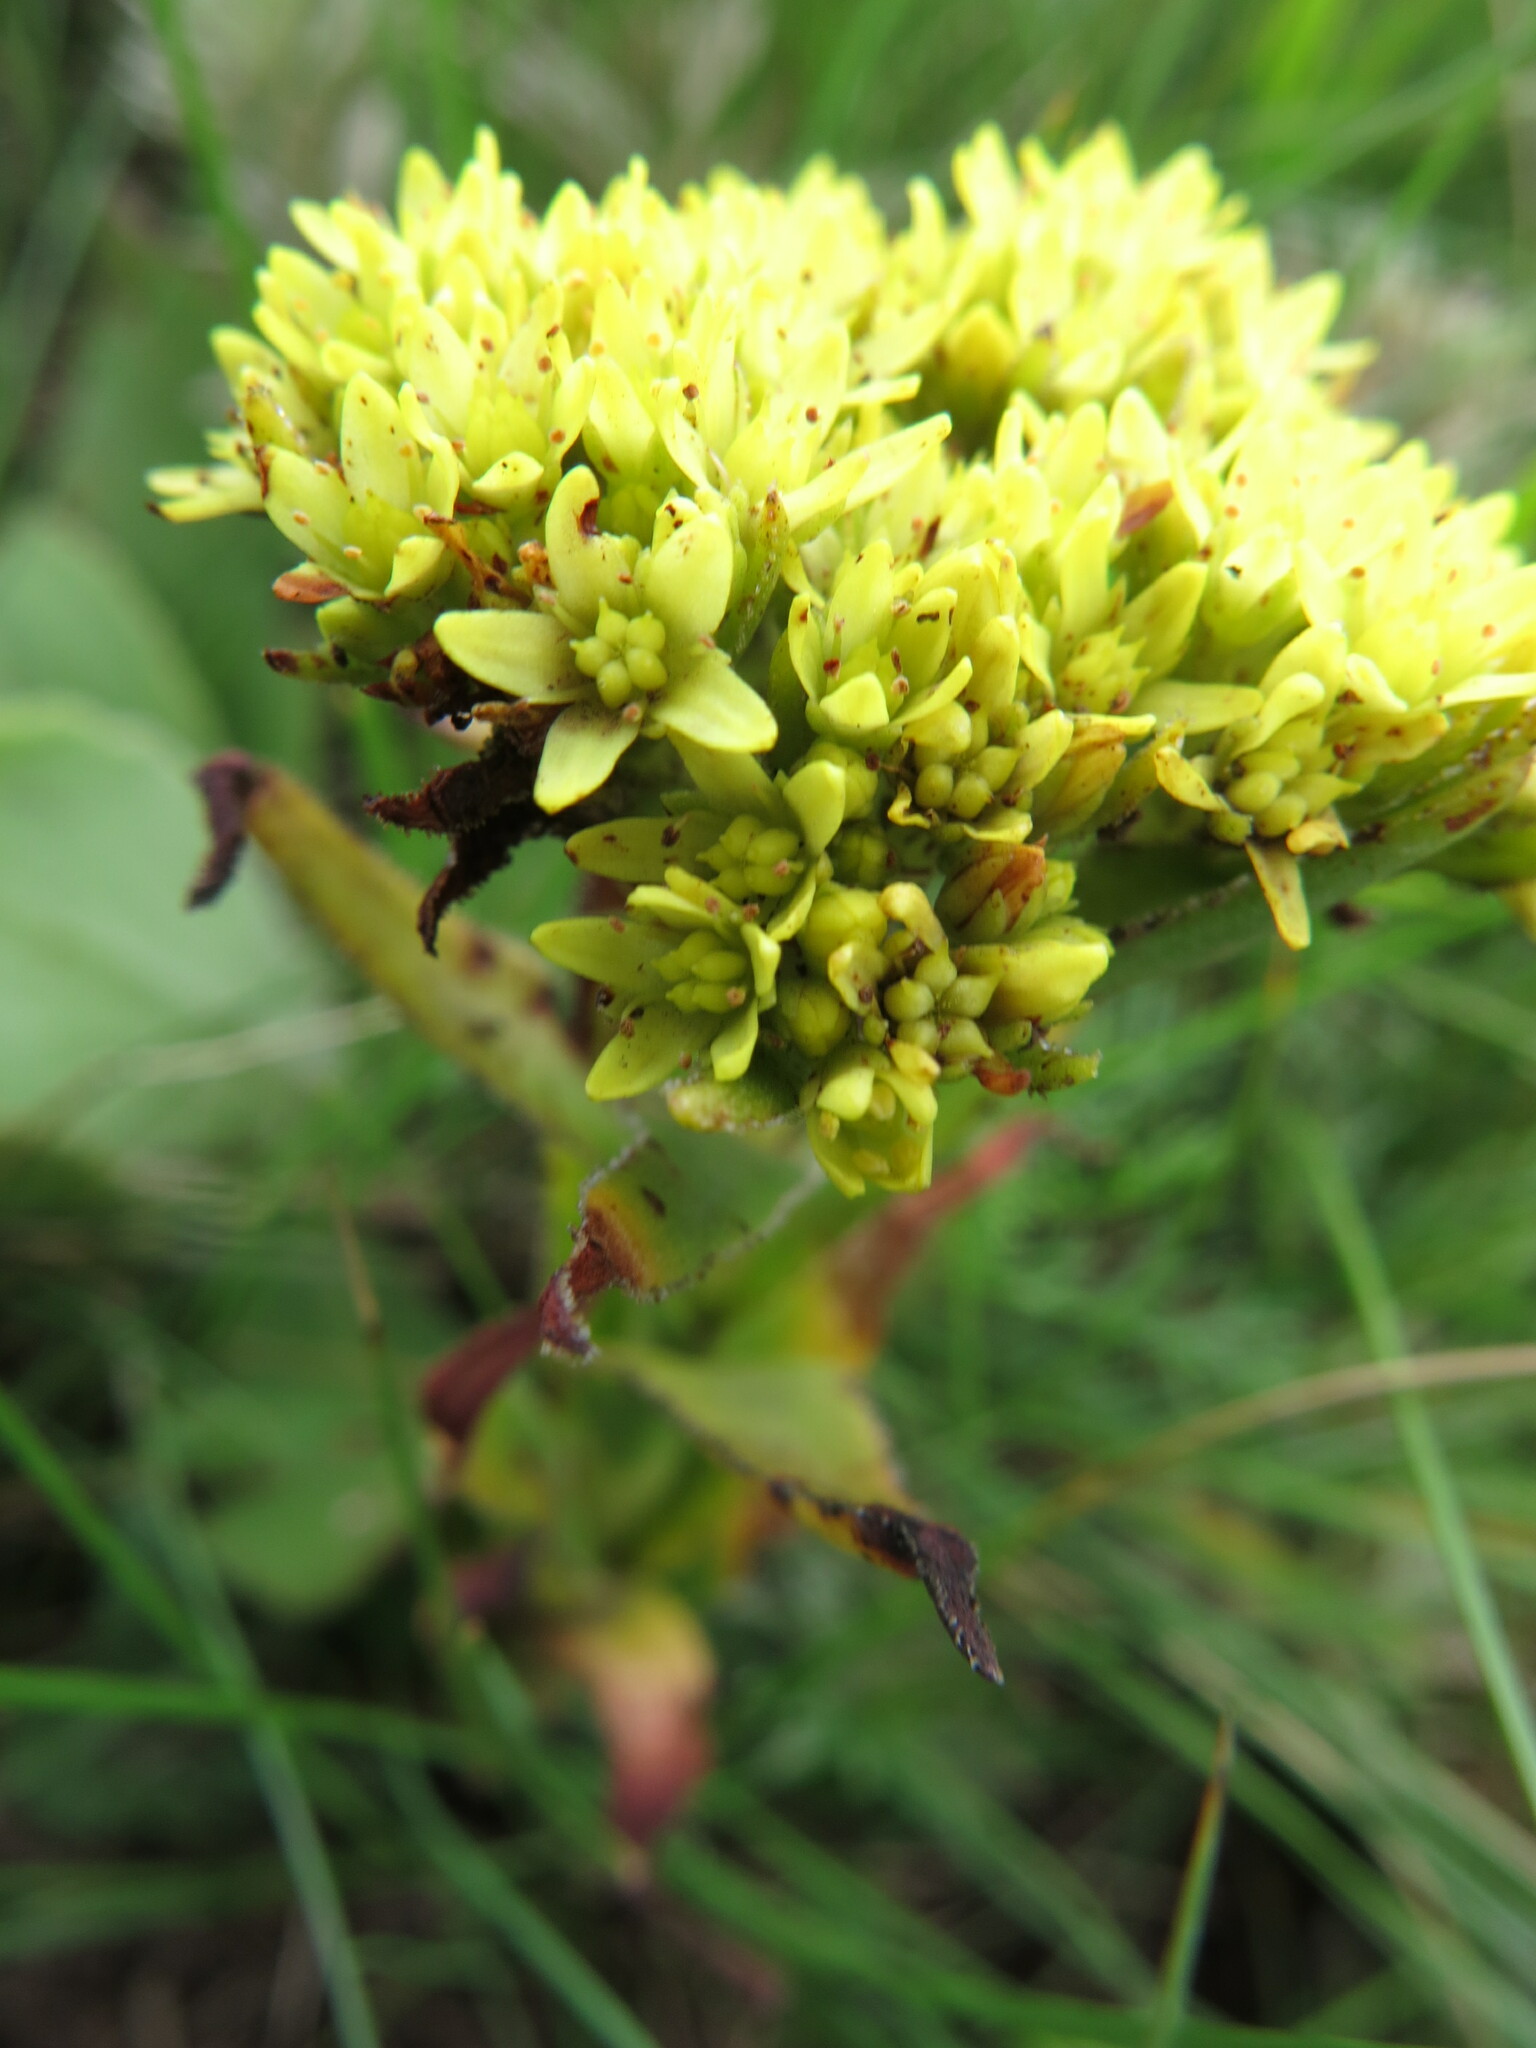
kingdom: Plantae
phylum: Tracheophyta
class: Magnoliopsida
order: Saxifragales
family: Crassulaceae
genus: Crassula
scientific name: Crassula vaginata
